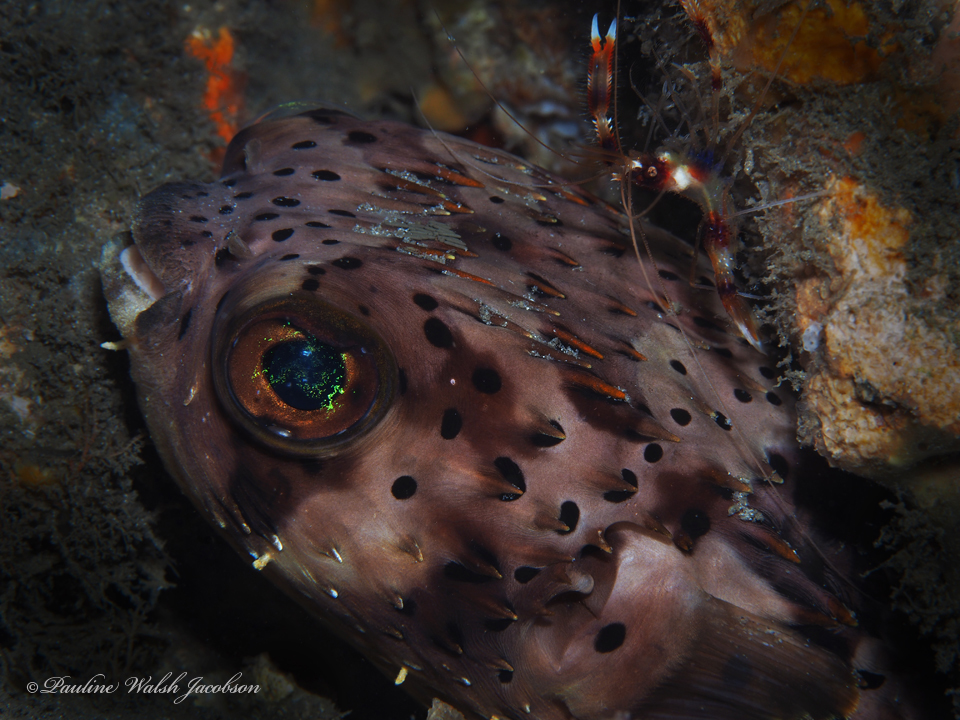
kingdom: Animalia
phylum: Chordata
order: Tetraodontiformes
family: Diodontidae
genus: Diodon
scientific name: Diodon holocanthus
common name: Balloonfish
